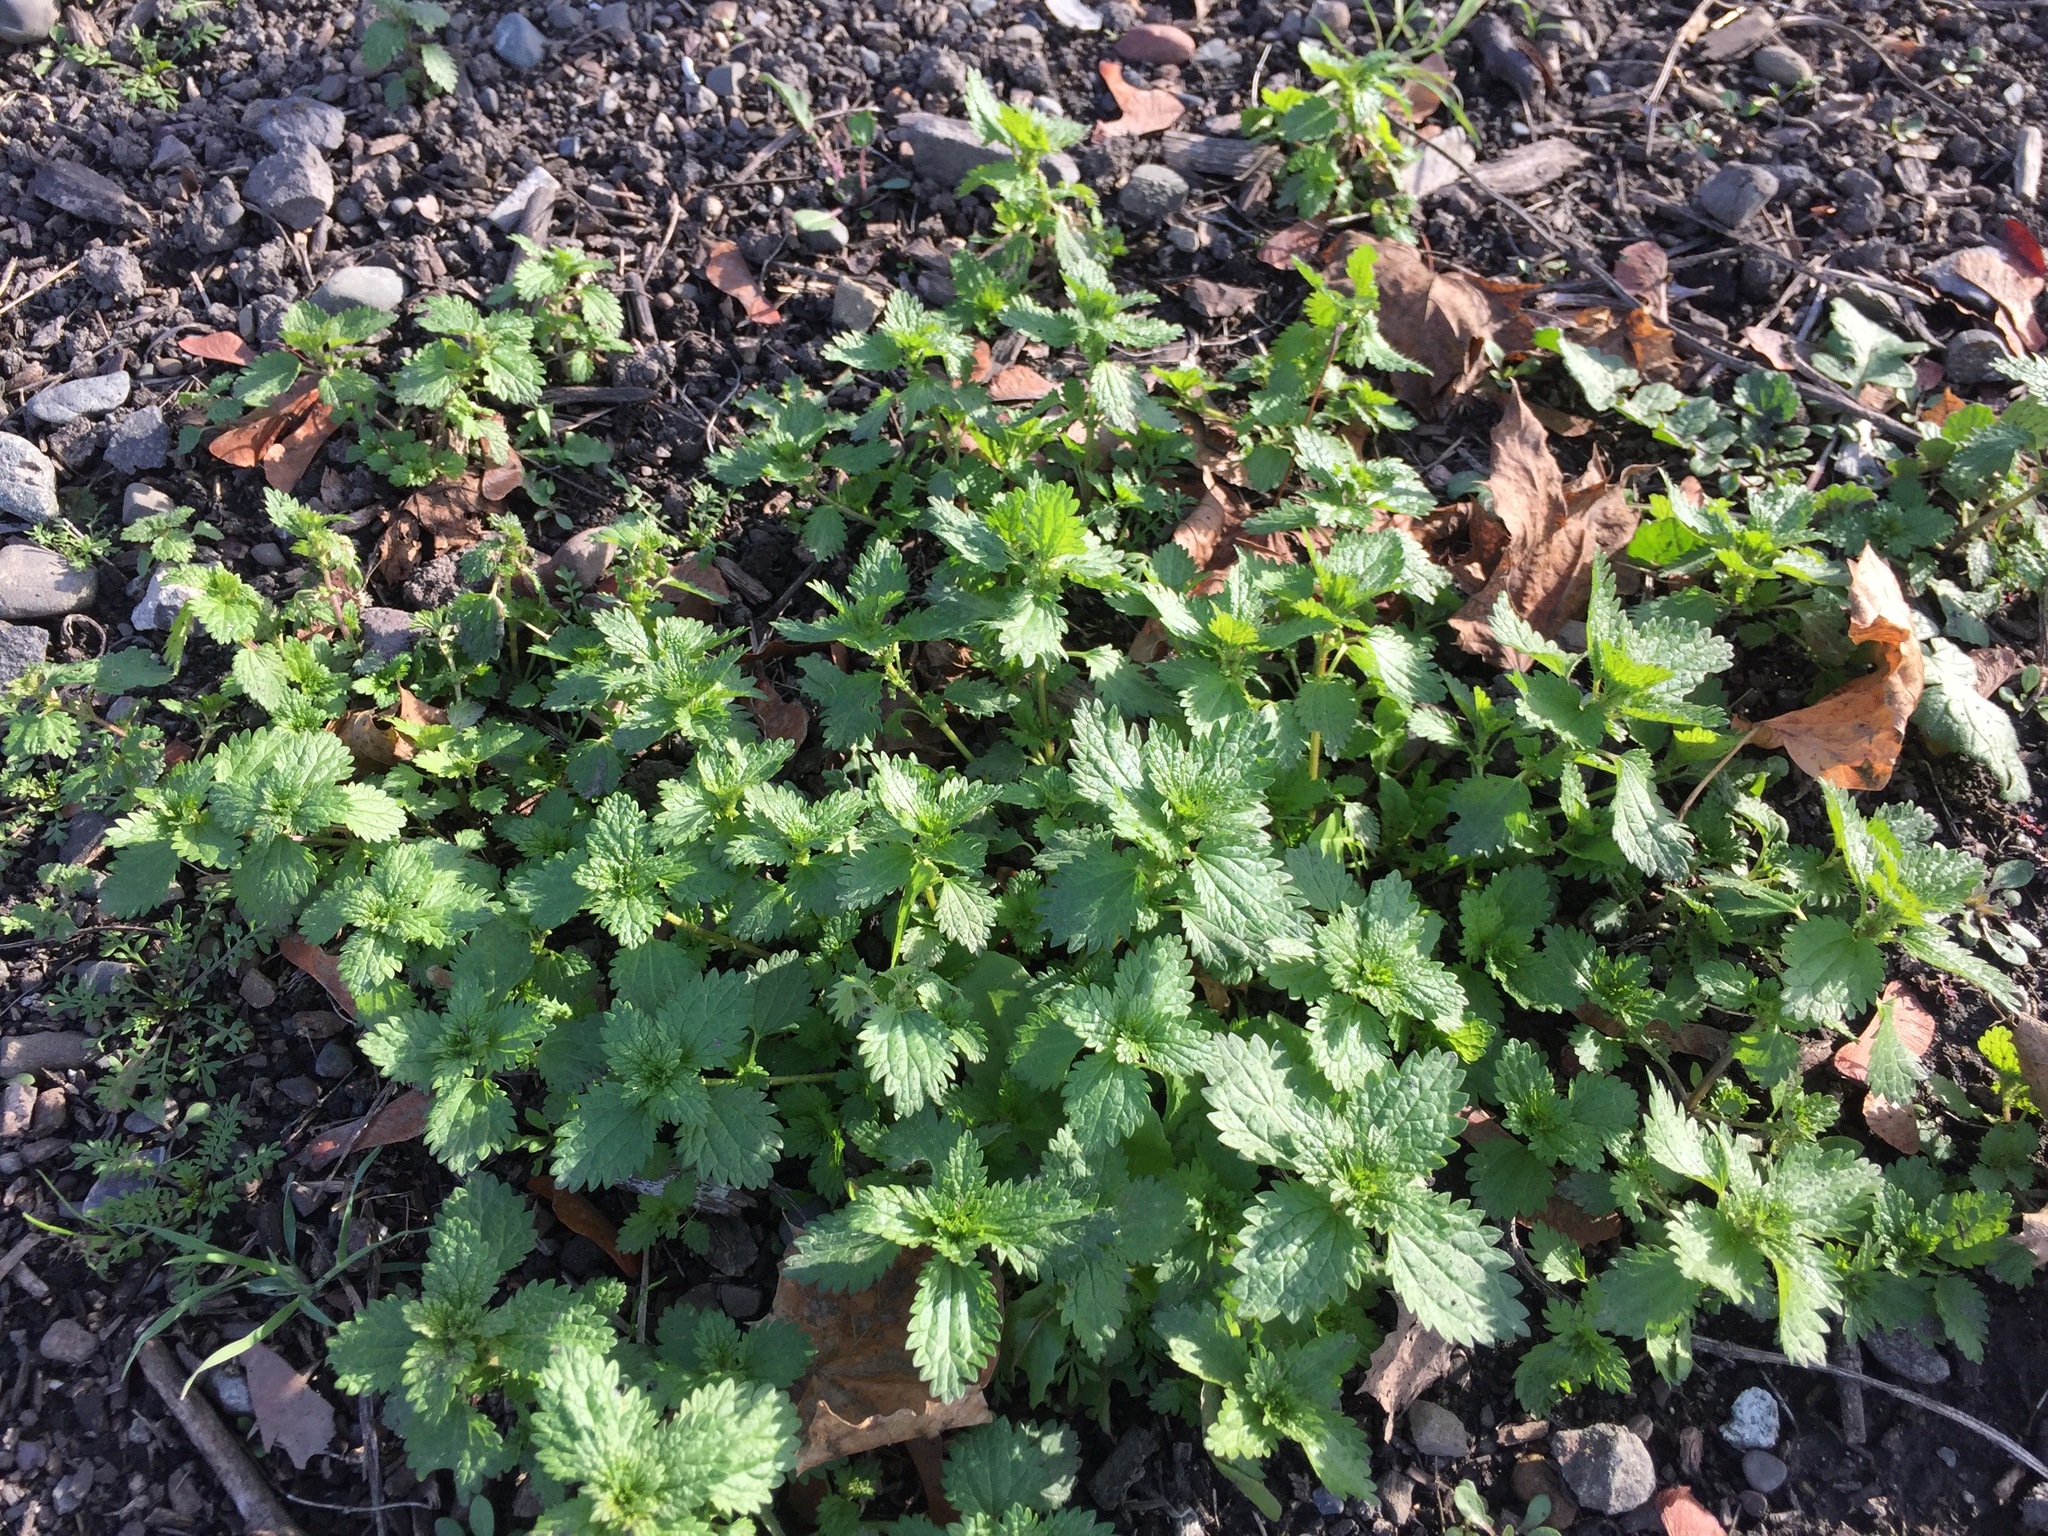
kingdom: Plantae
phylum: Tracheophyta
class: Magnoliopsida
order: Rosales
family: Urticaceae
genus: Urtica
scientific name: Urtica urens
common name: Dwarf nettle
